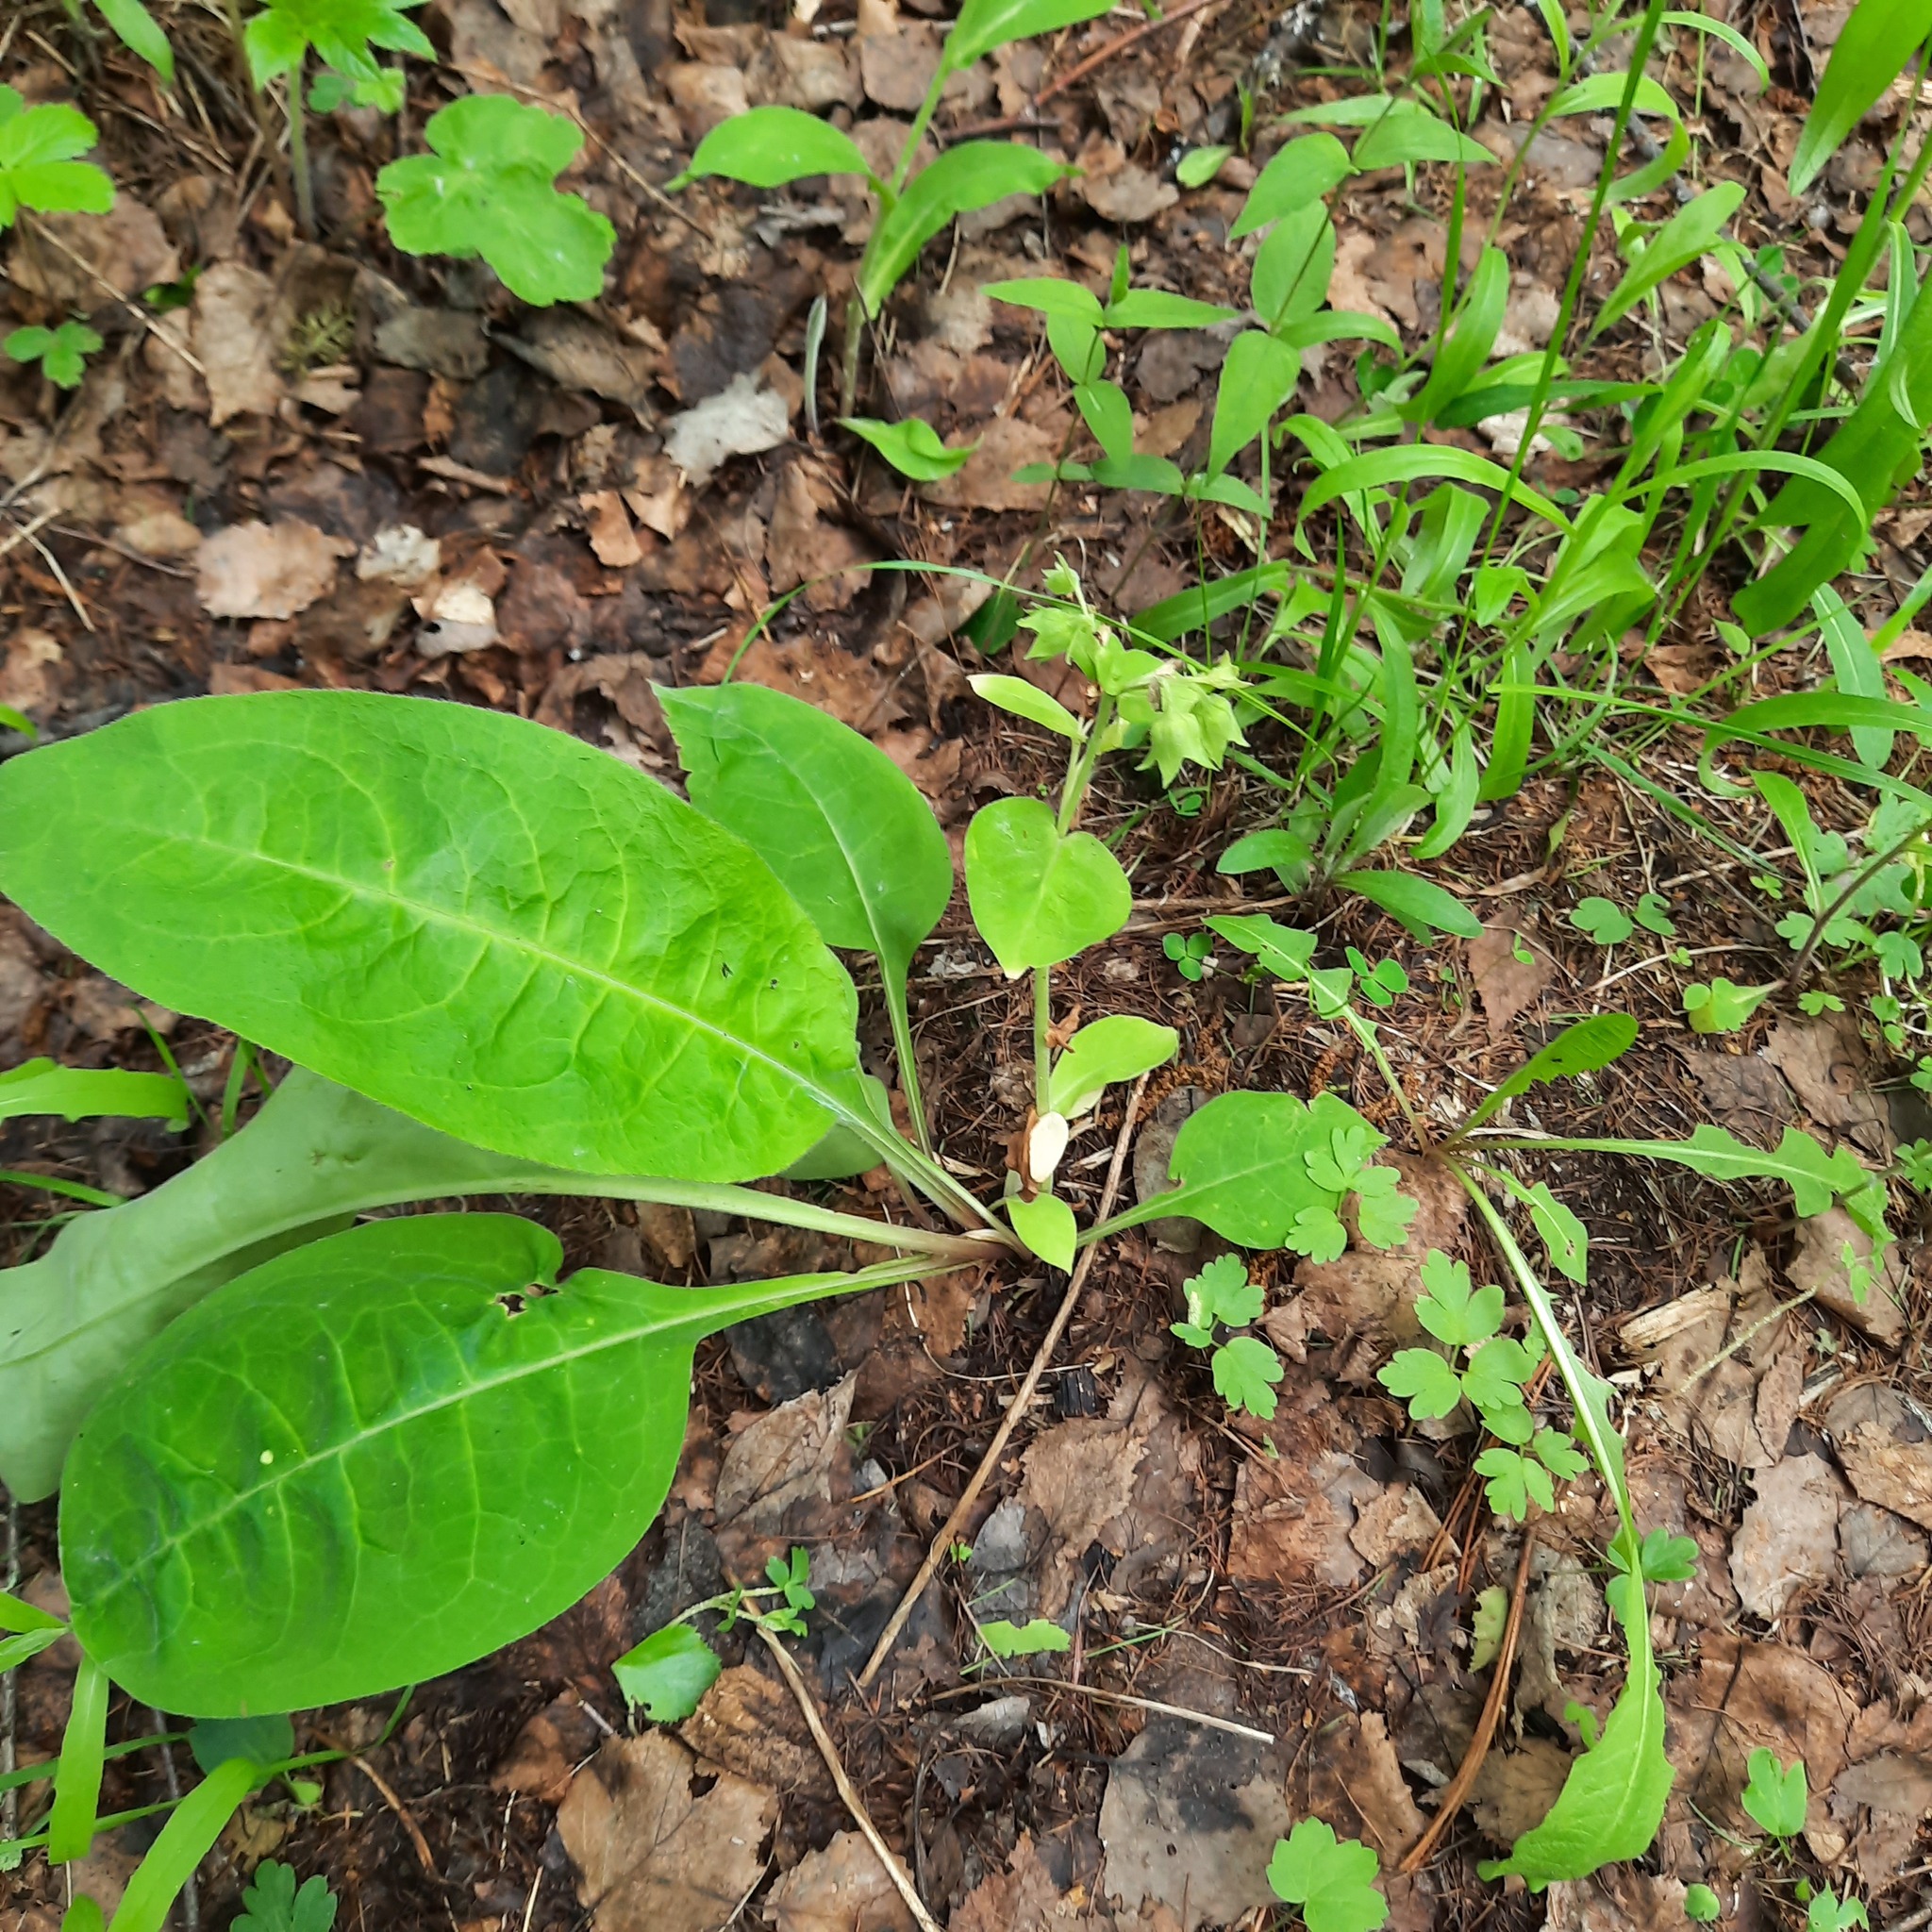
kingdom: Plantae
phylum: Tracheophyta
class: Magnoliopsida
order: Boraginales
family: Boraginaceae
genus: Pulmonaria
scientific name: Pulmonaria mollis
